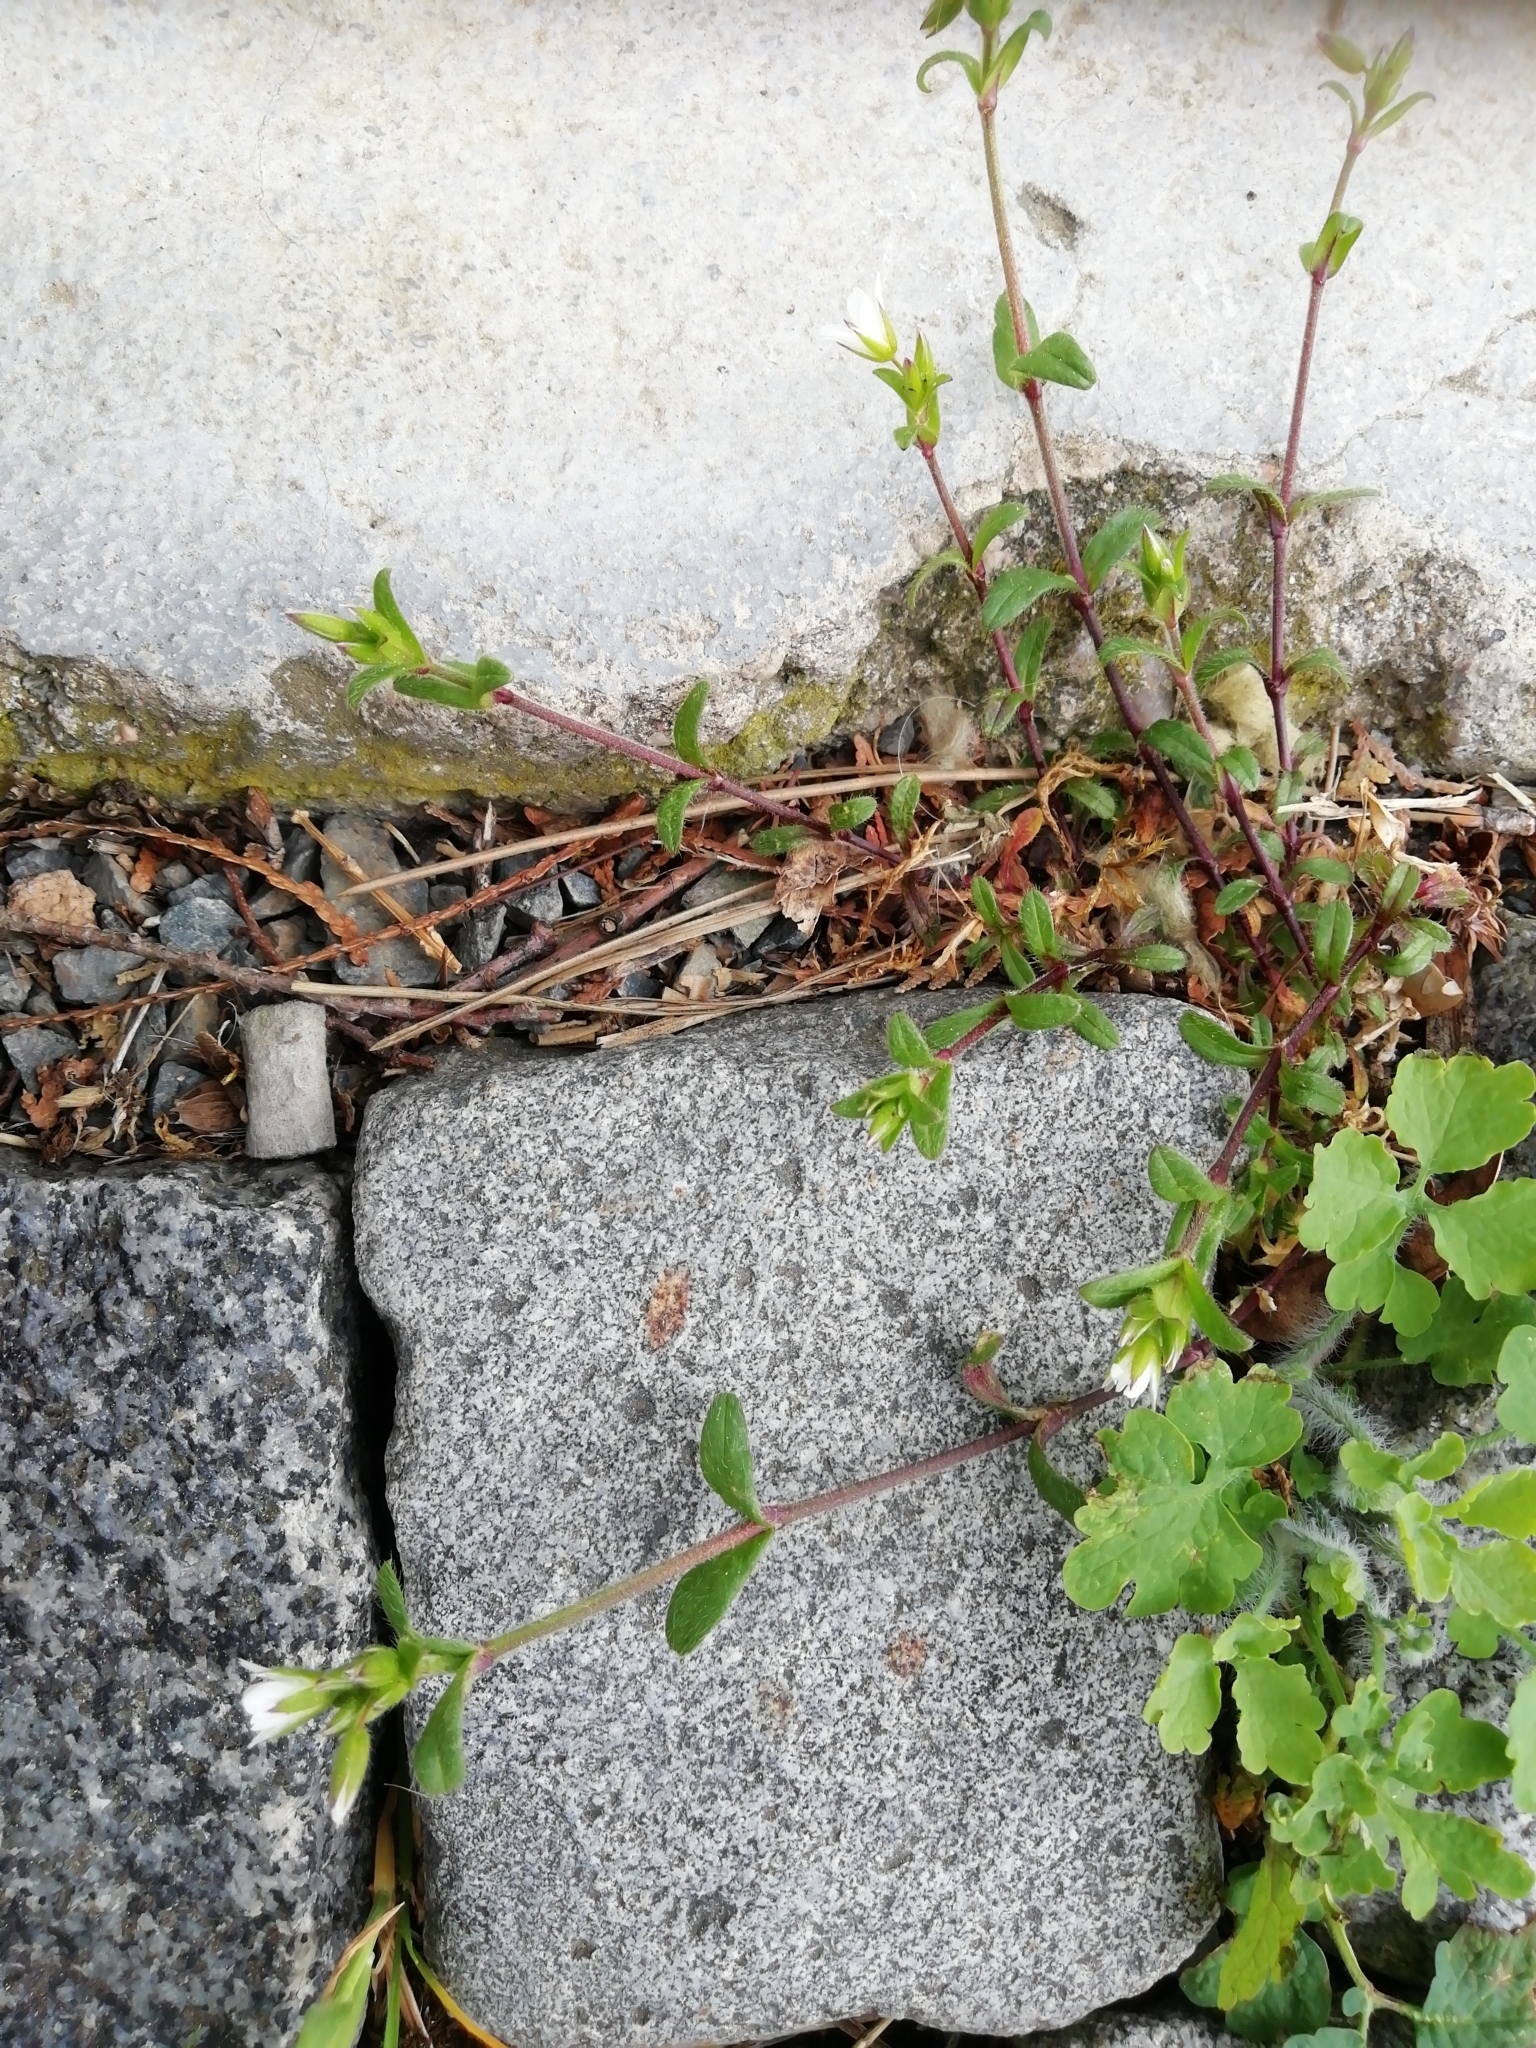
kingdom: Plantae
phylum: Tracheophyta
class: Magnoliopsida
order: Caryophyllales
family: Caryophyllaceae
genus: Cerastium
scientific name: Cerastium holosteoides
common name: Big chickweed
